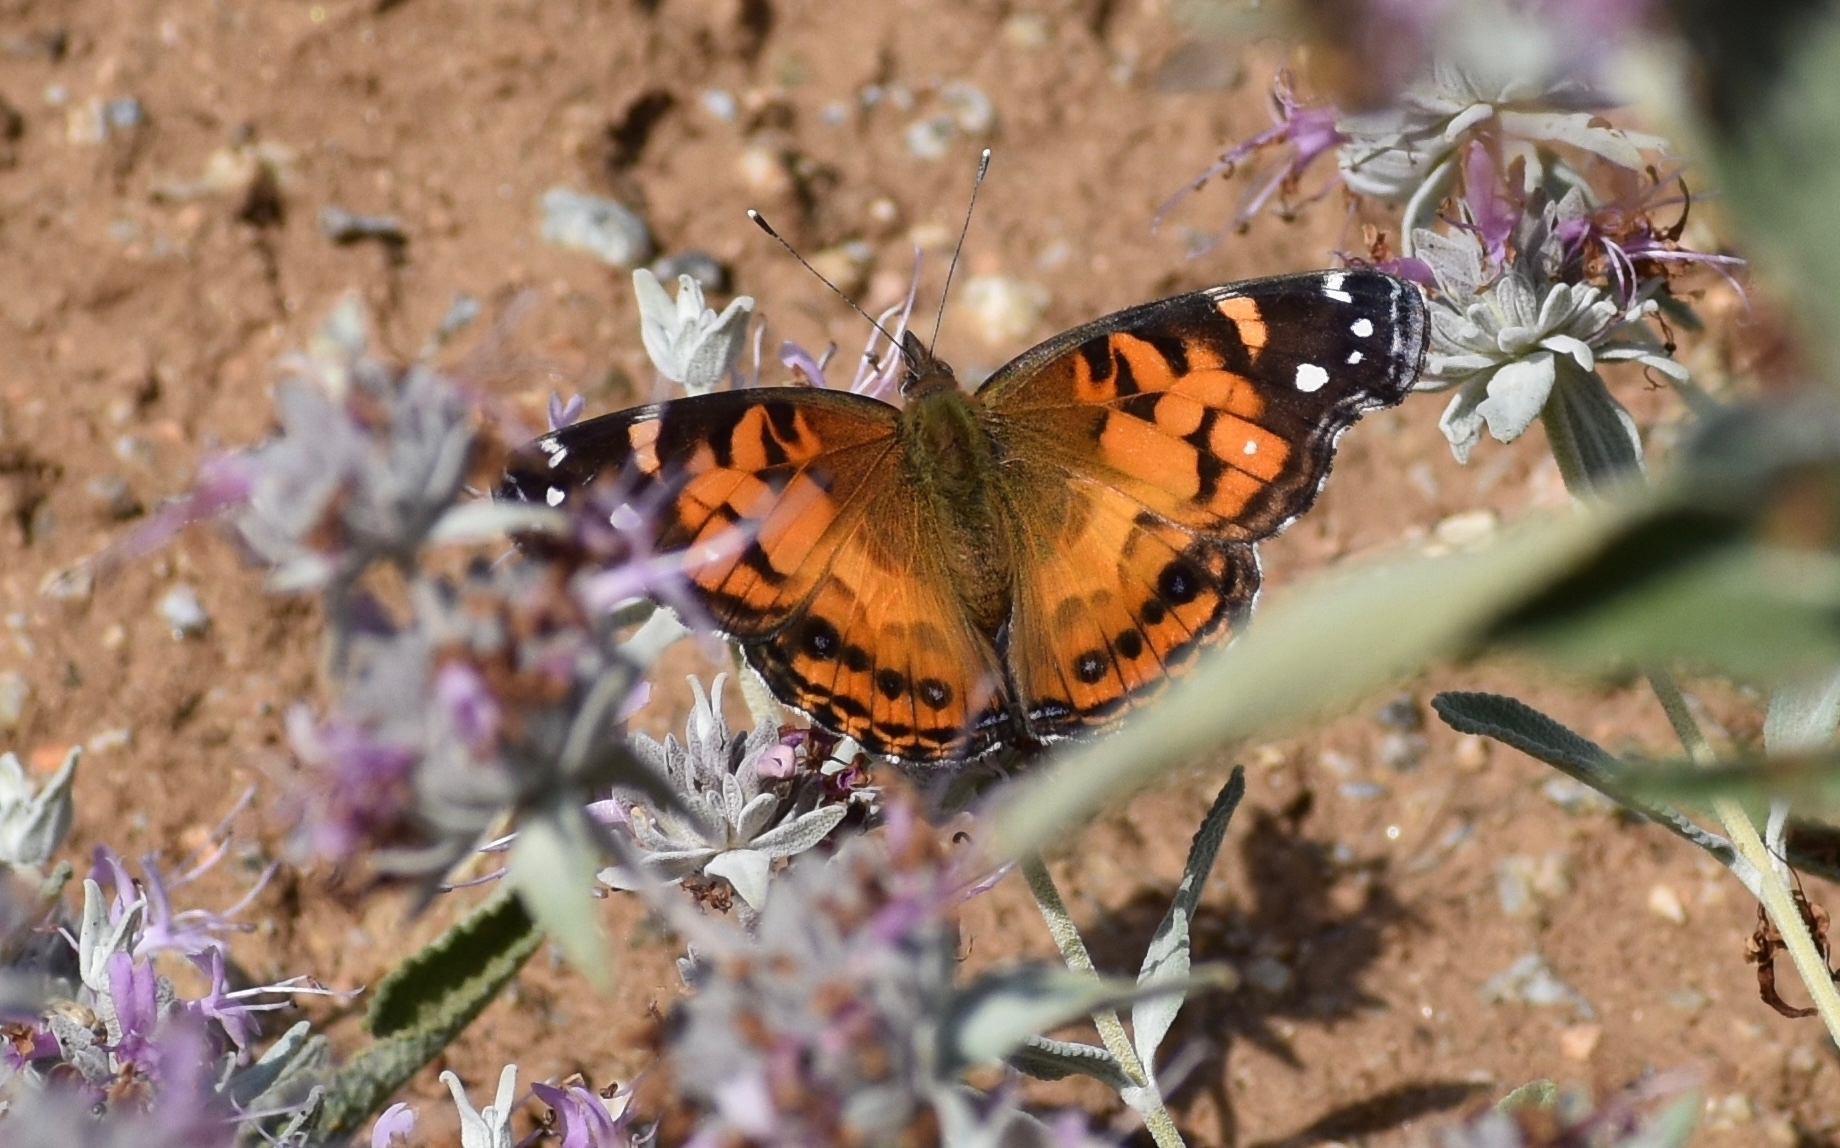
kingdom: Animalia
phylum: Arthropoda
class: Insecta
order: Lepidoptera
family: Nymphalidae
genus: Vanessa
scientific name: Vanessa virginiensis
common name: American lady
